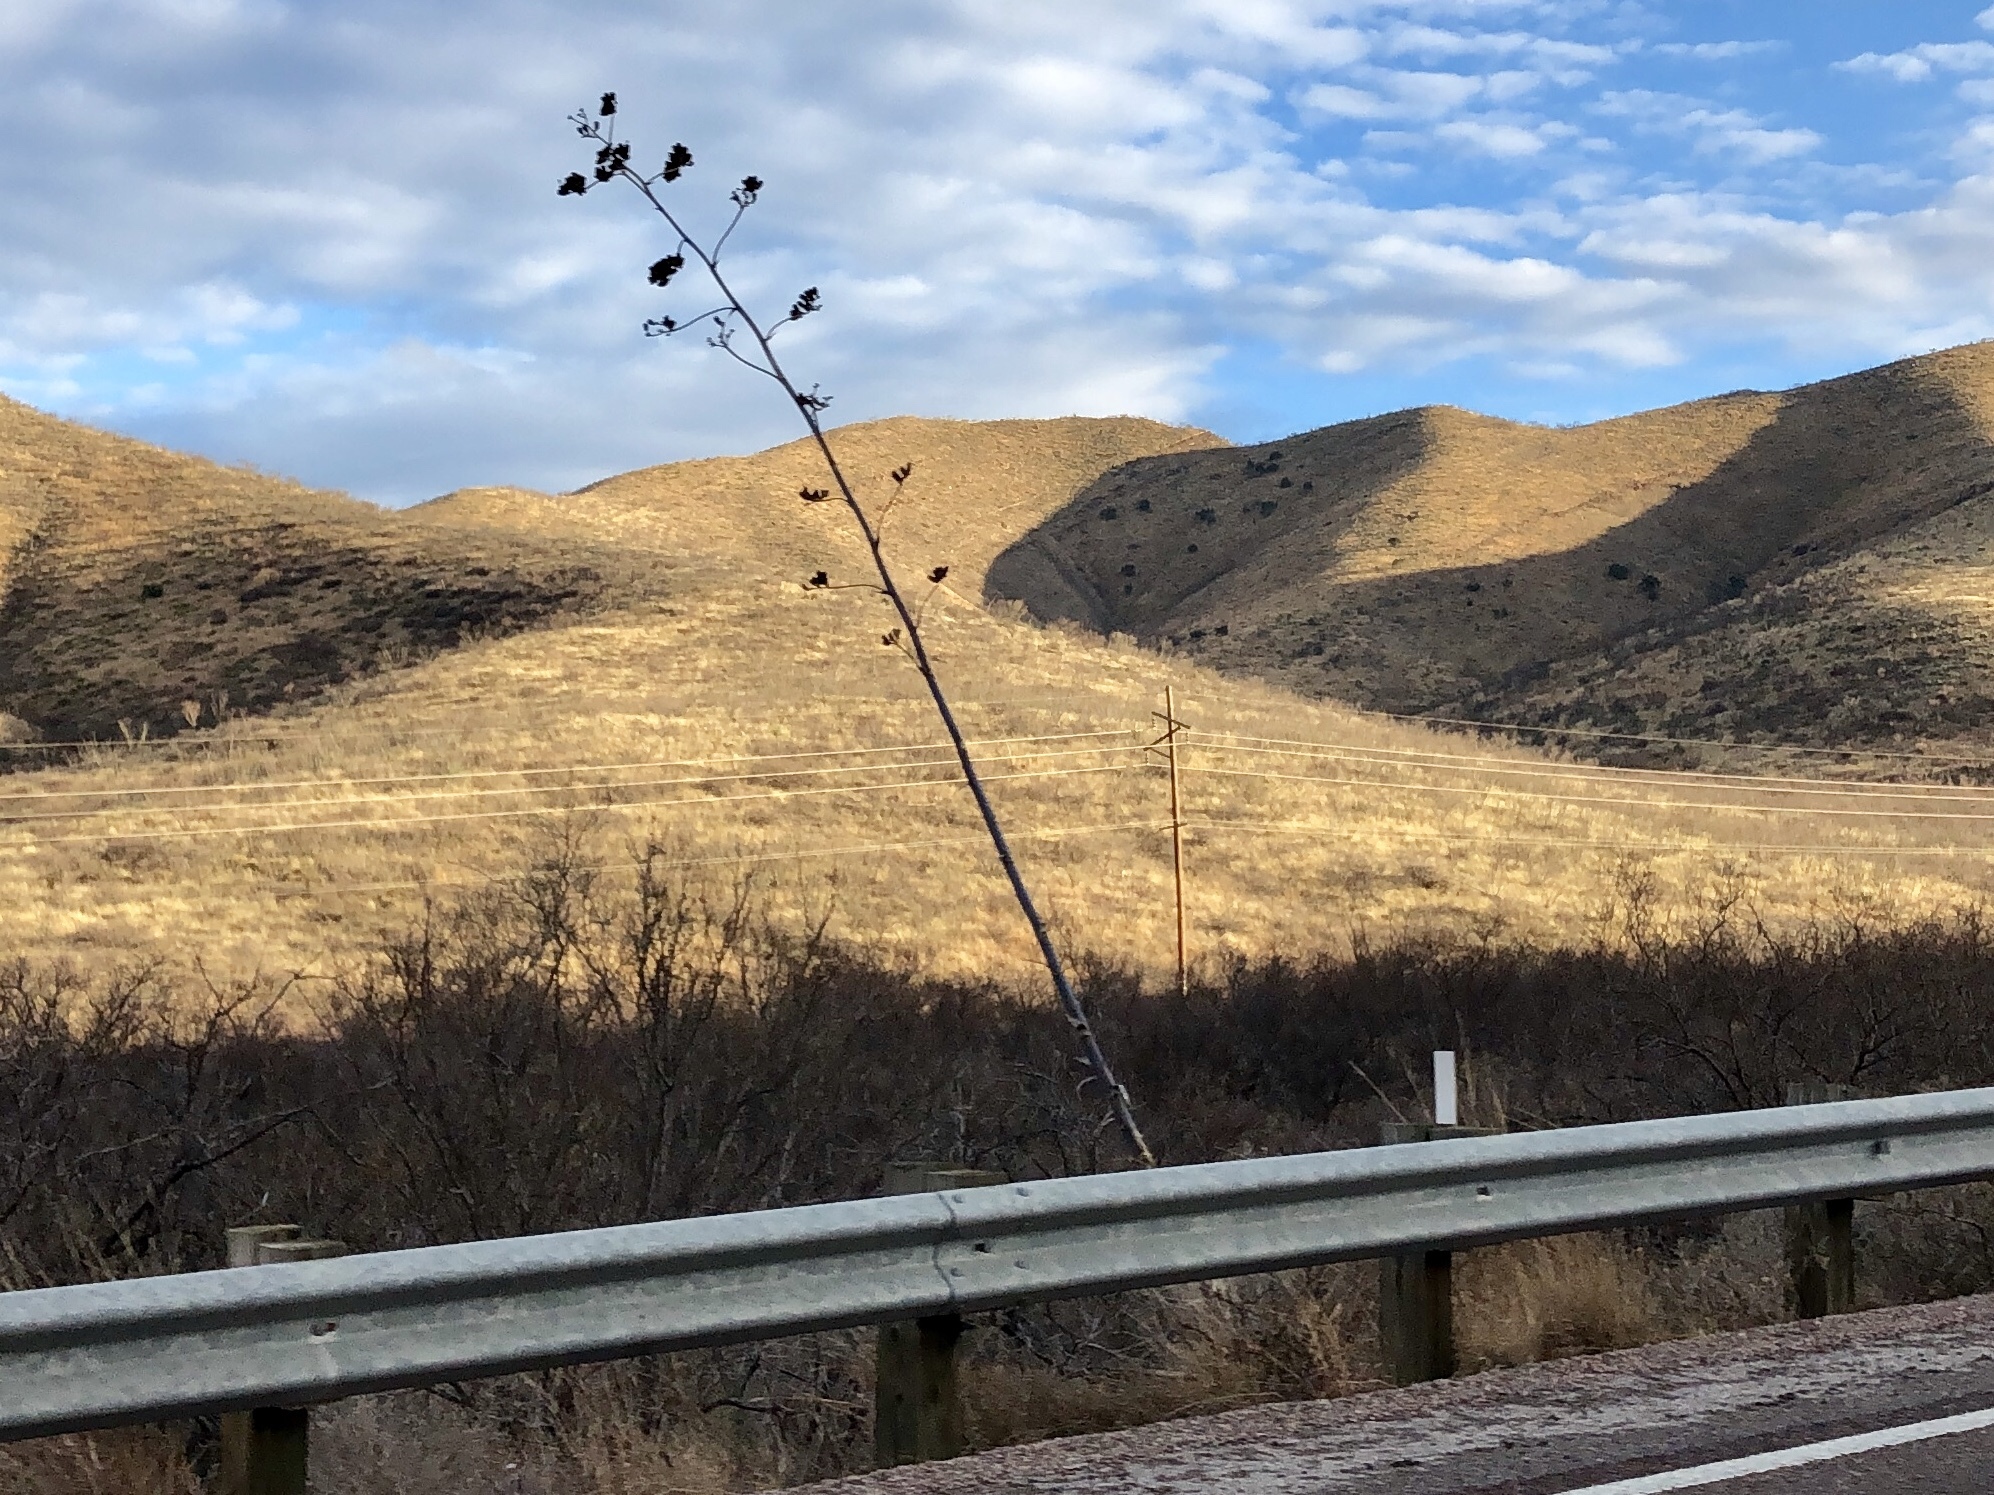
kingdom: Plantae
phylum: Tracheophyta
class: Liliopsida
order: Asparagales
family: Asparagaceae
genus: Agave
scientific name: Agave palmeri
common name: Palmer agave
